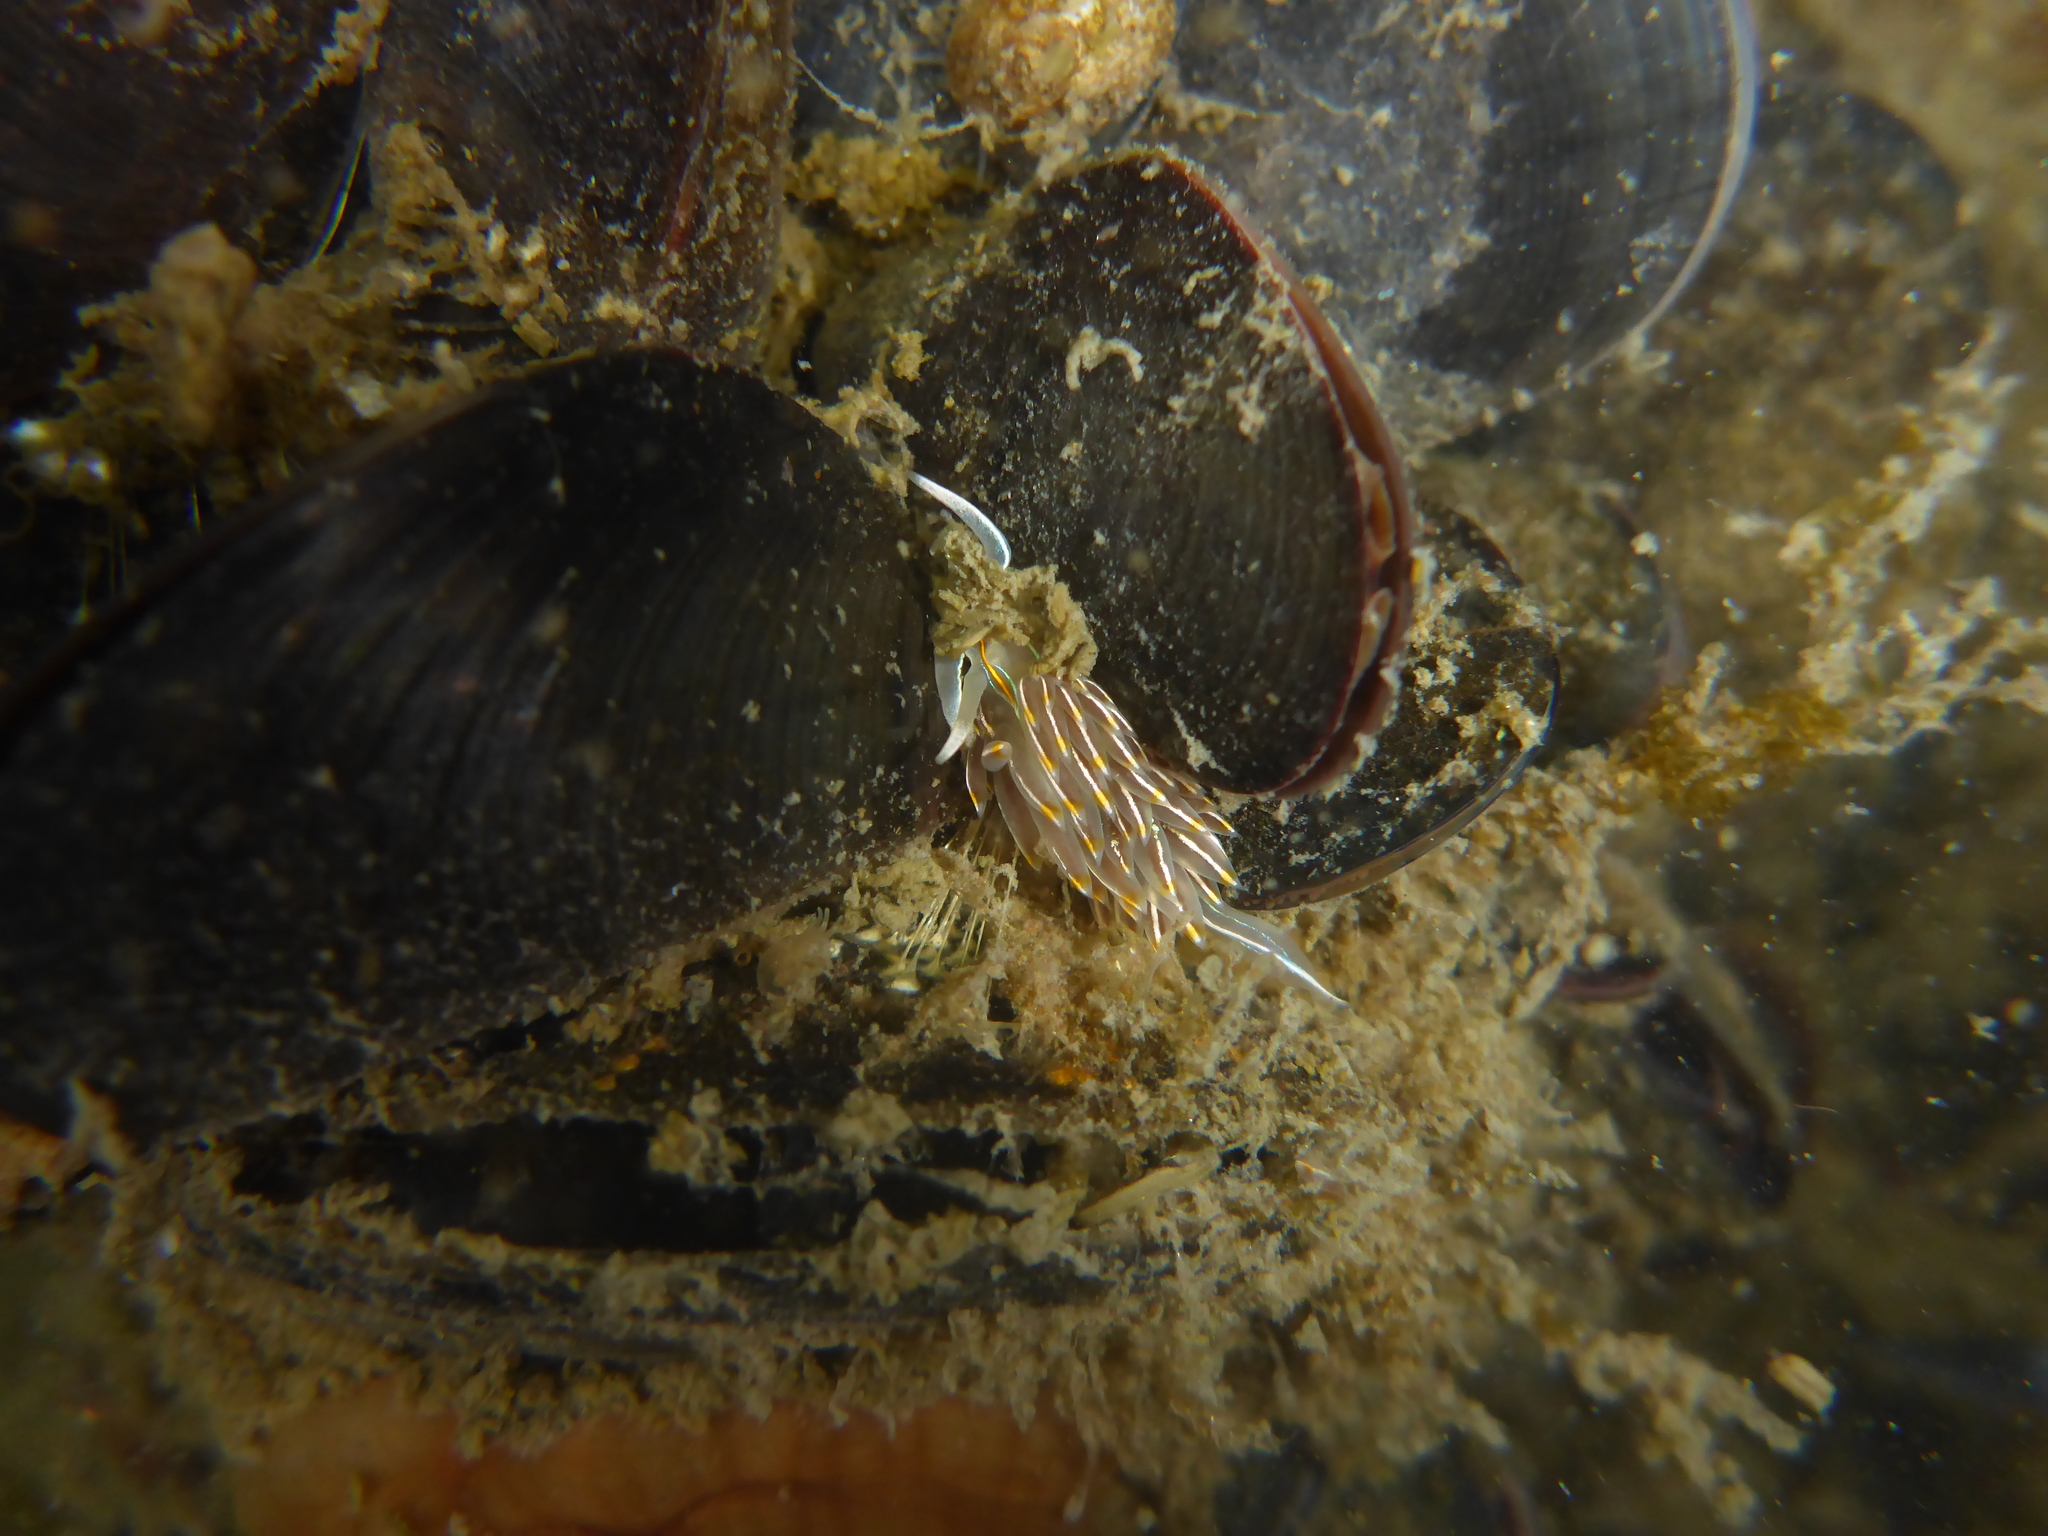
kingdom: Animalia
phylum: Mollusca
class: Gastropoda
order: Nudibranchia
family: Myrrhinidae
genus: Hermissenda
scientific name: Hermissenda crassicornis
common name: Hermissenda
